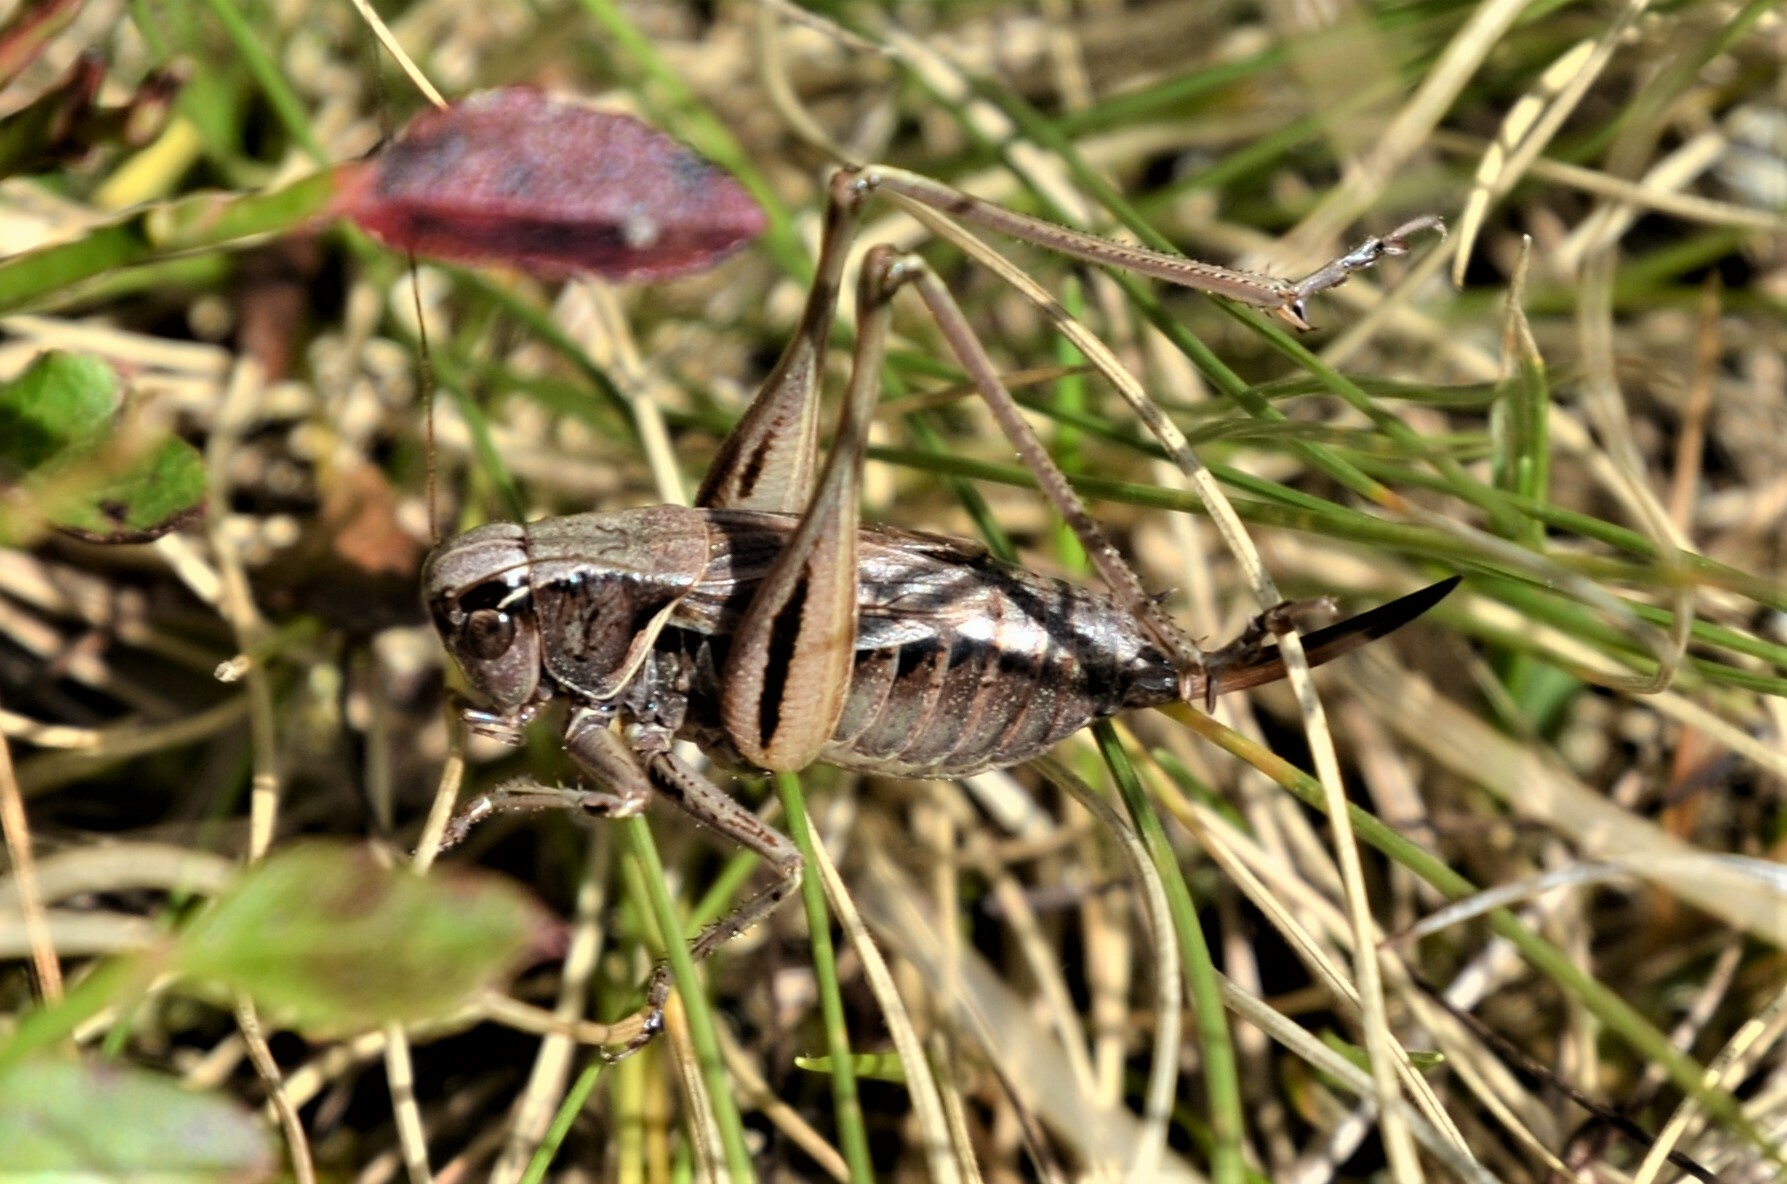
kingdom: Animalia
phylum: Arthropoda
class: Insecta
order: Orthoptera
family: Tettigoniidae
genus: Metrioptera
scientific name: Metrioptera brachyptera
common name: Bog bush-cricket
